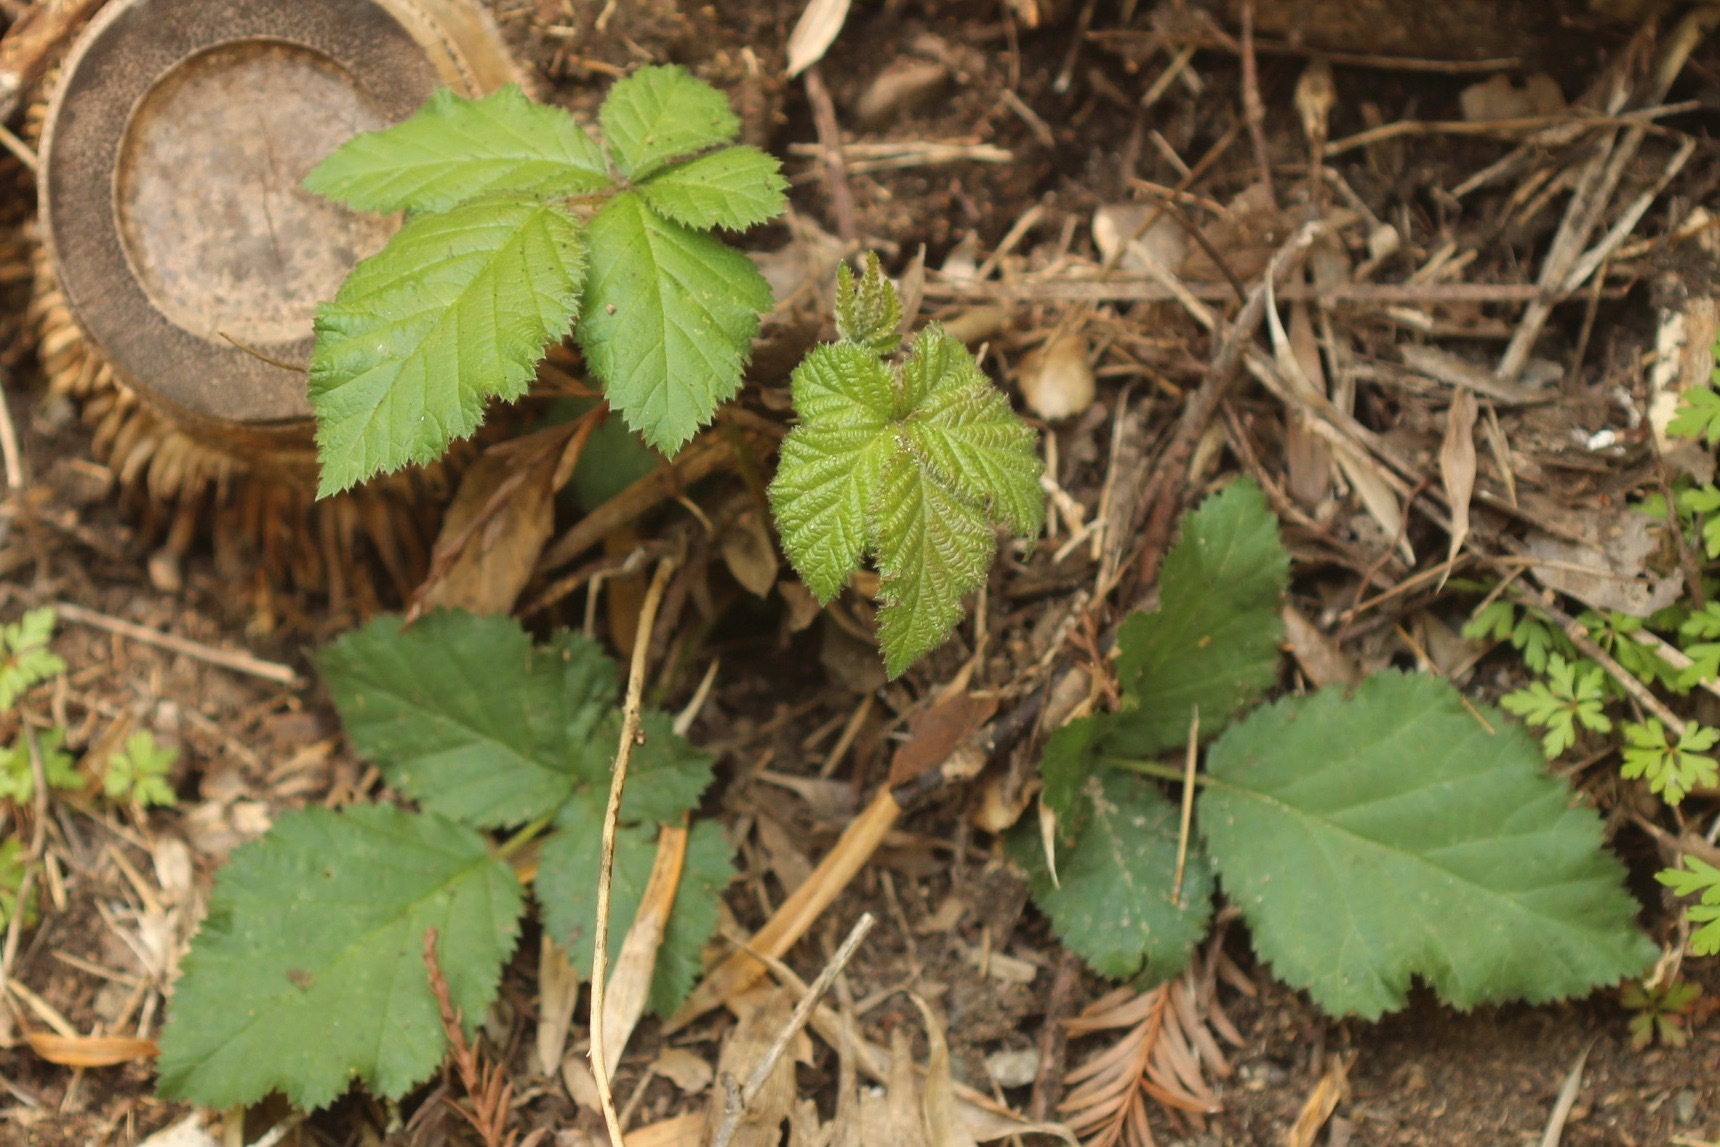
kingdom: Plantae
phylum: Tracheophyta
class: Magnoliopsida
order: Rosales
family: Rosaceae
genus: Rubus
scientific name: Rubus armeniacus
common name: Himalayan blackberry
